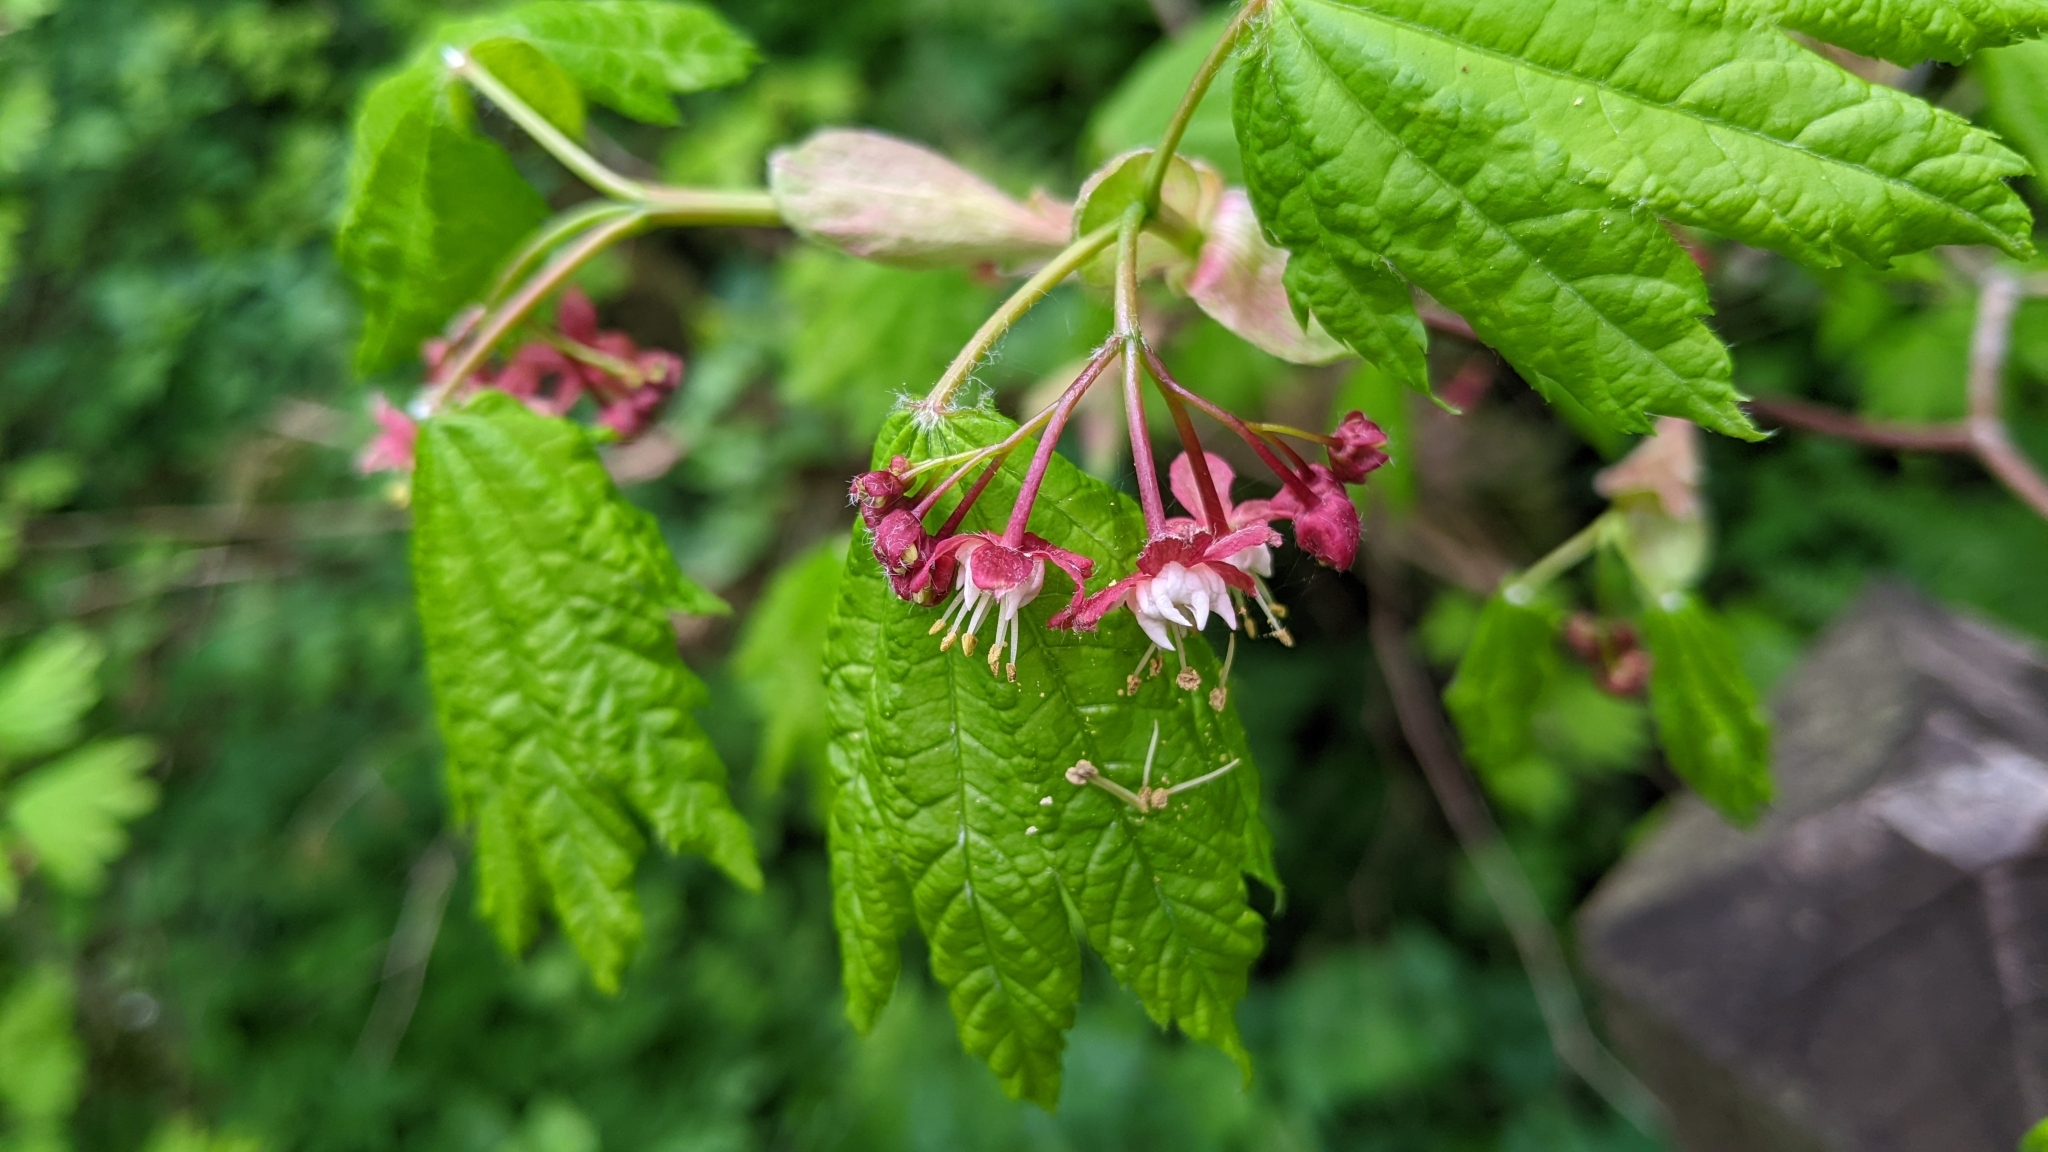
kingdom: Plantae
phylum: Tracheophyta
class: Magnoliopsida
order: Sapindales
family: Sapindaceae
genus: Acer
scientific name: Acer circinatum
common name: Vine maple
